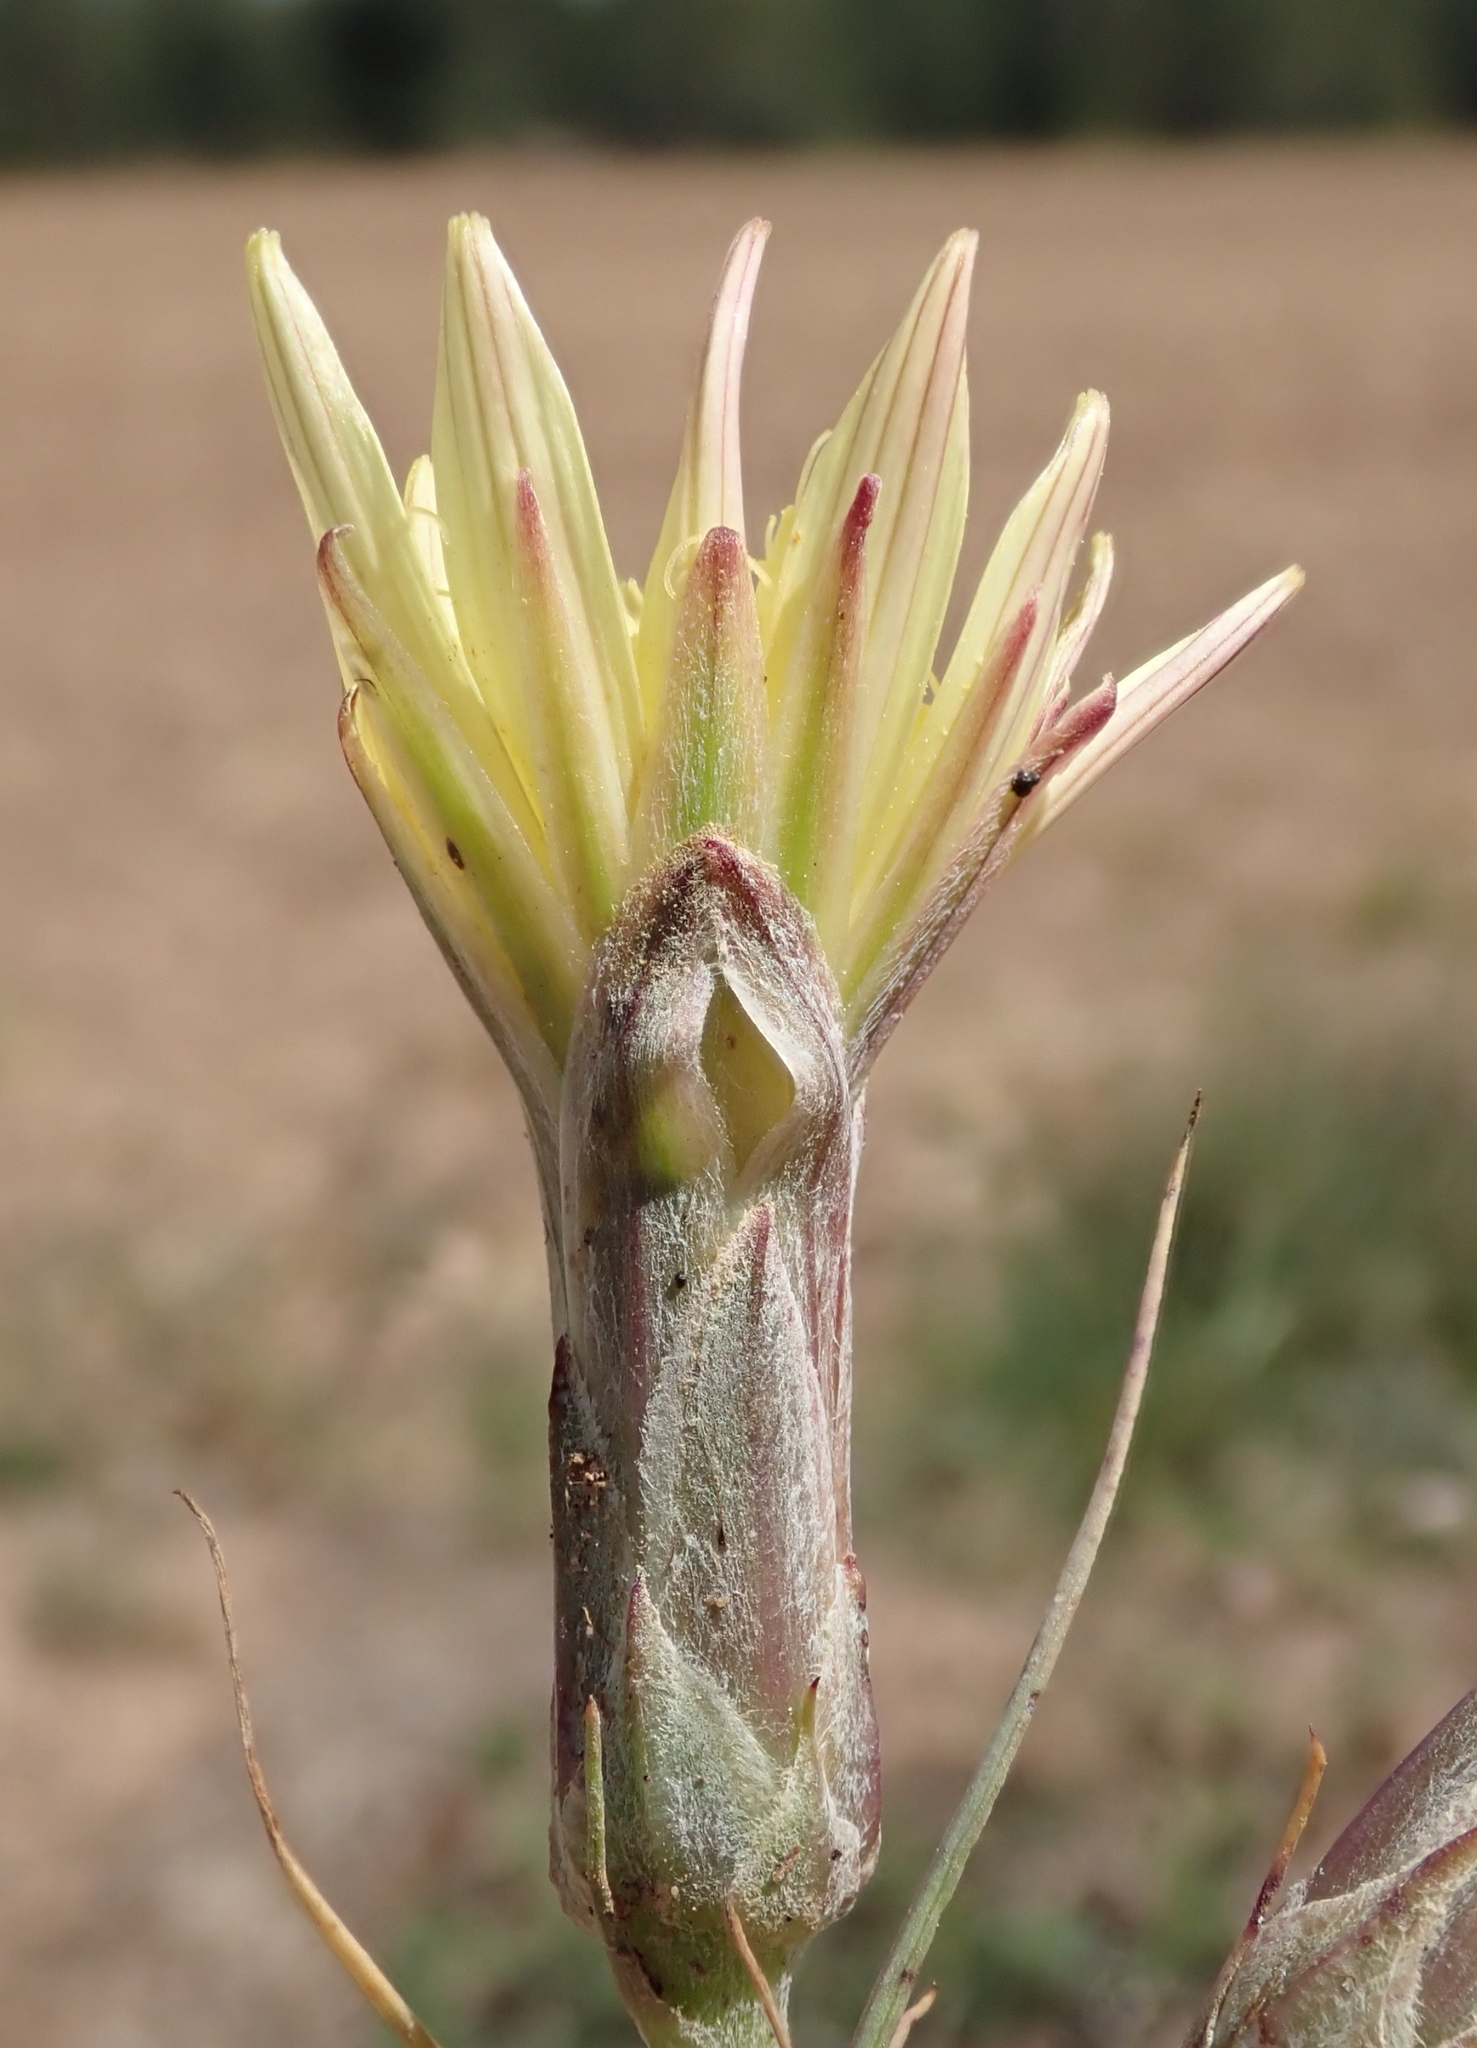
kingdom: Plantae
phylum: Tracheophyta
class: Magnoliopsida
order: Asterales
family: Asteraceae
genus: Scorzonera
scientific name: Scorzonera angustifolia
